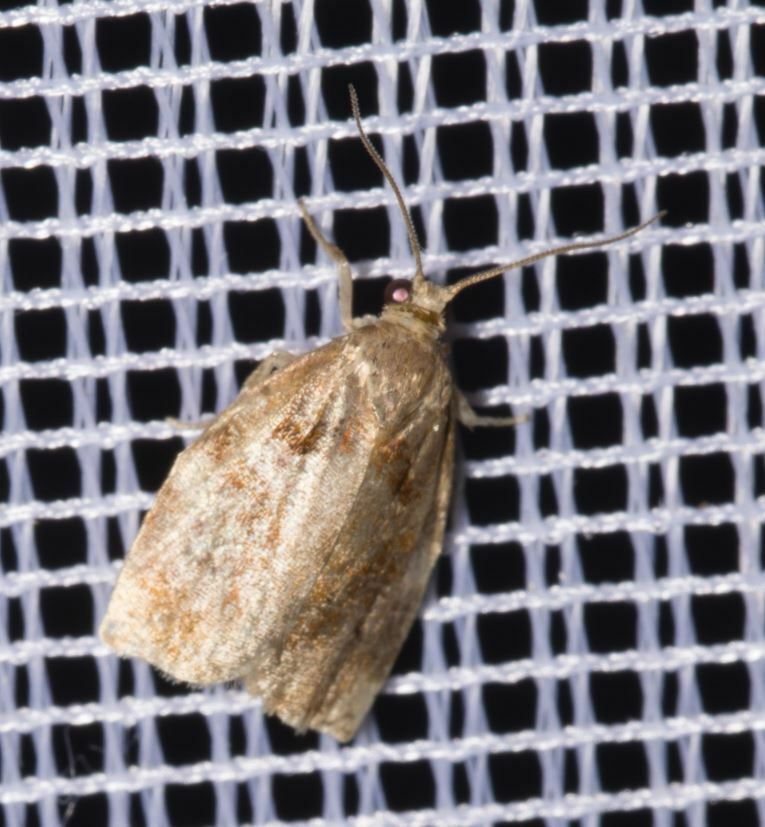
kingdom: Animalia
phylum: Arthropoda
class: Insecta
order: Lepidoptera
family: Tortricidae
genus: Archips
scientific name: Archips xylosteana
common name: Variegated golden tortrix
